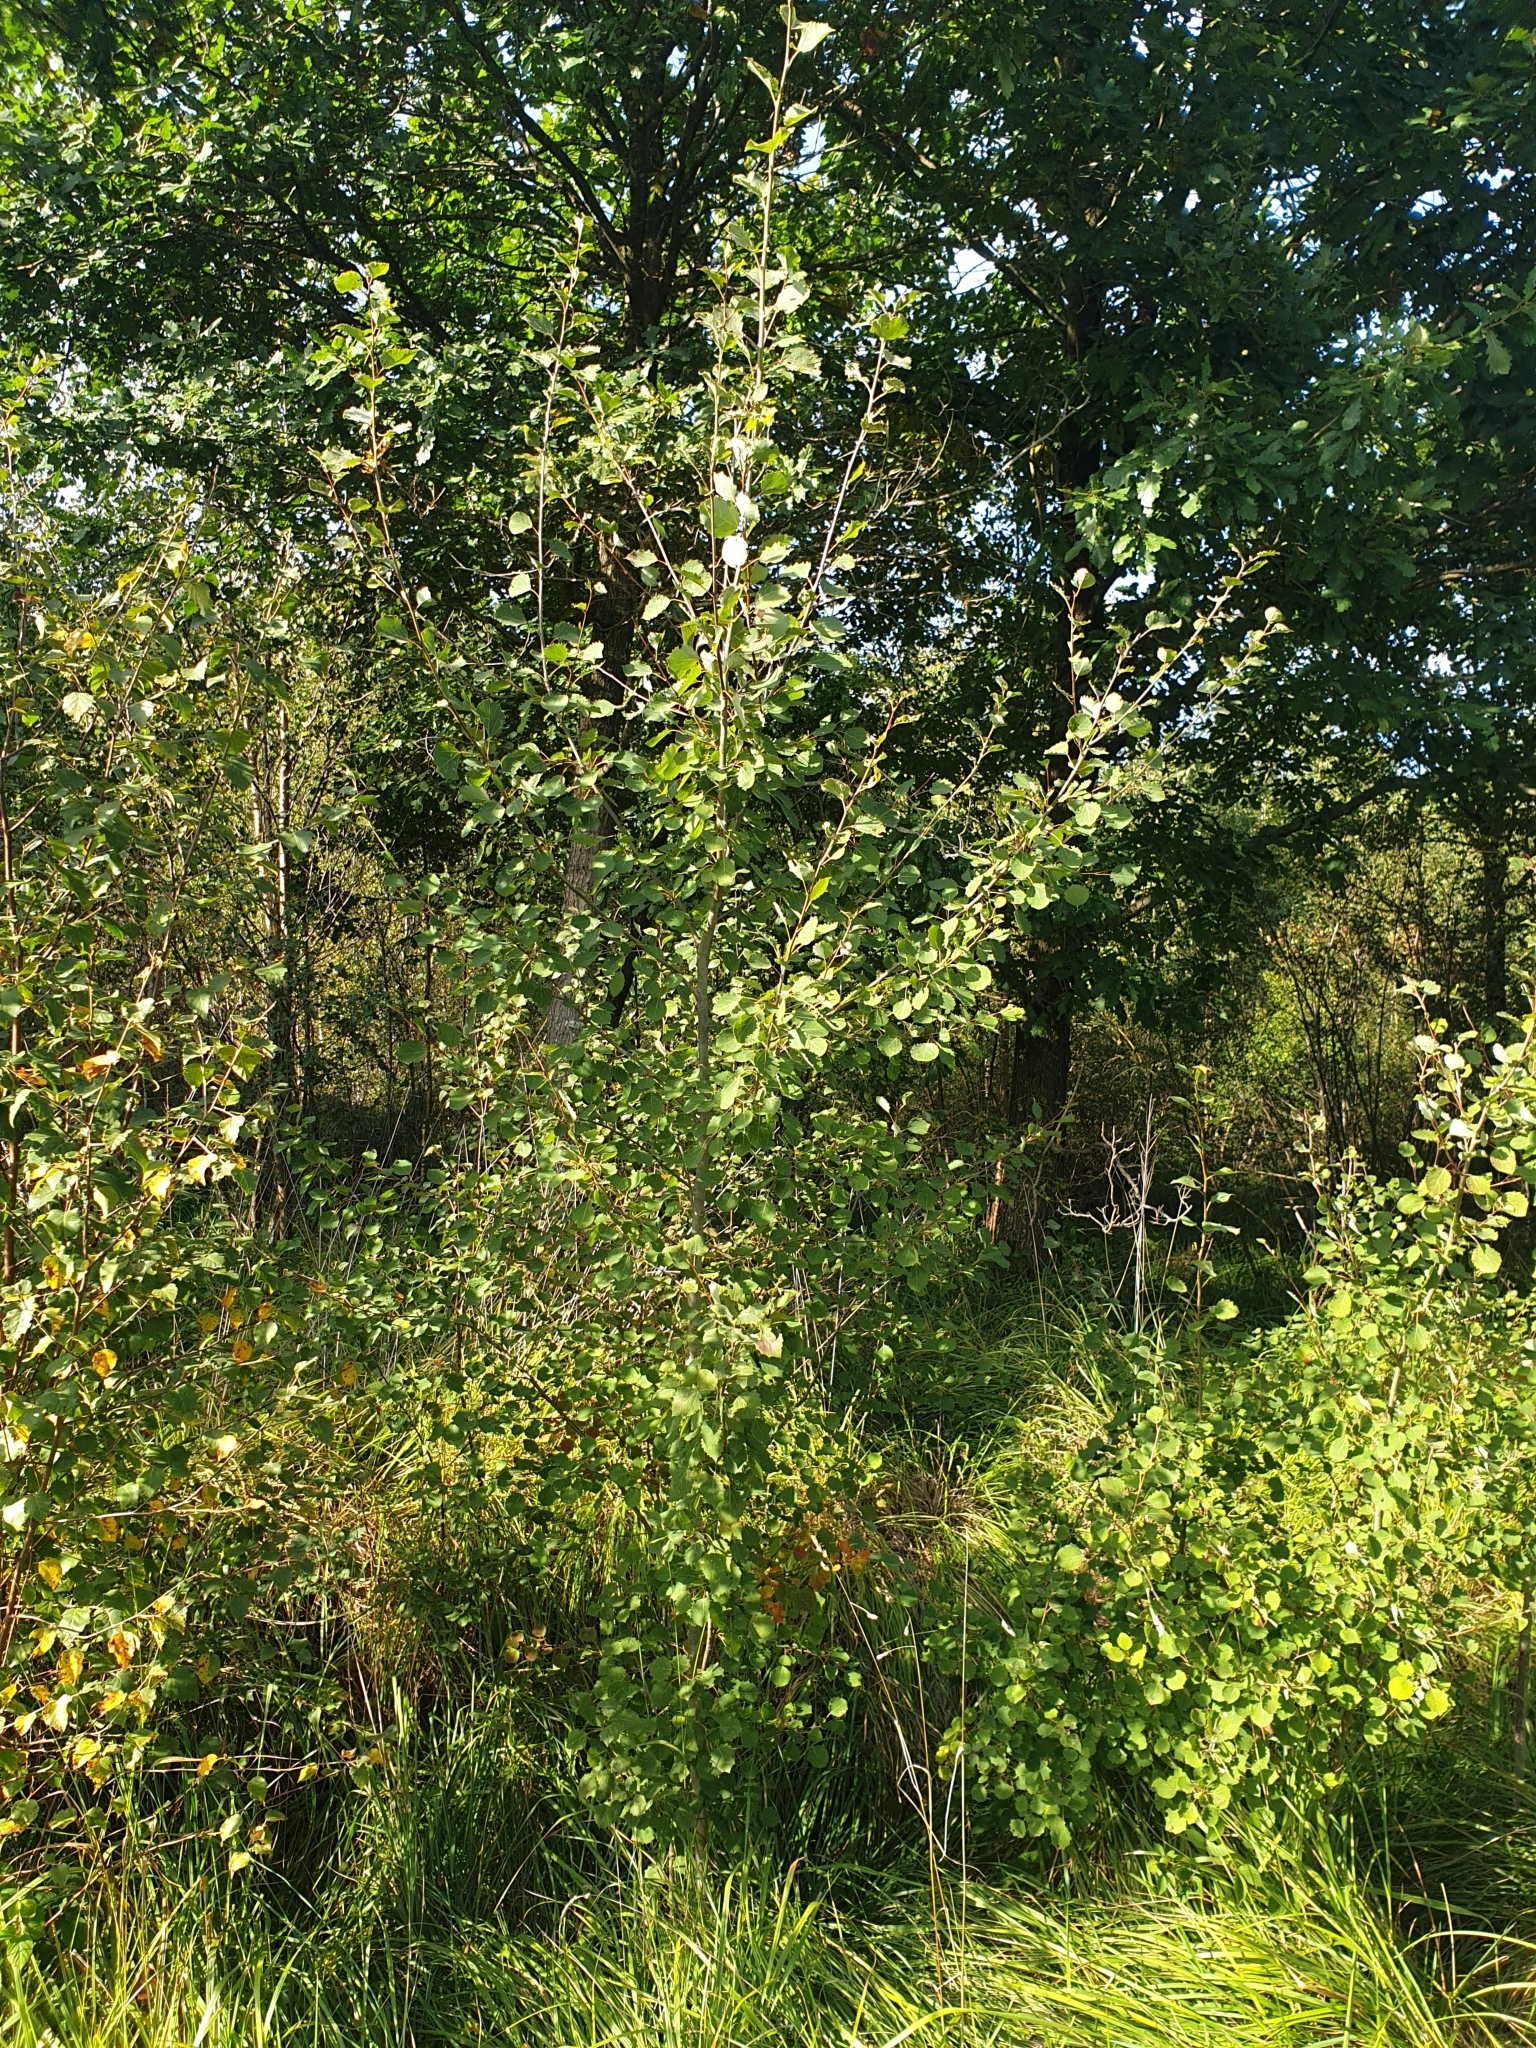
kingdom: Plantae
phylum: Tracheophyta
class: Magnoliopsida
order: Malpighiales
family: Salicaceae
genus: Populus
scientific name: Populus tremula
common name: European aspen
